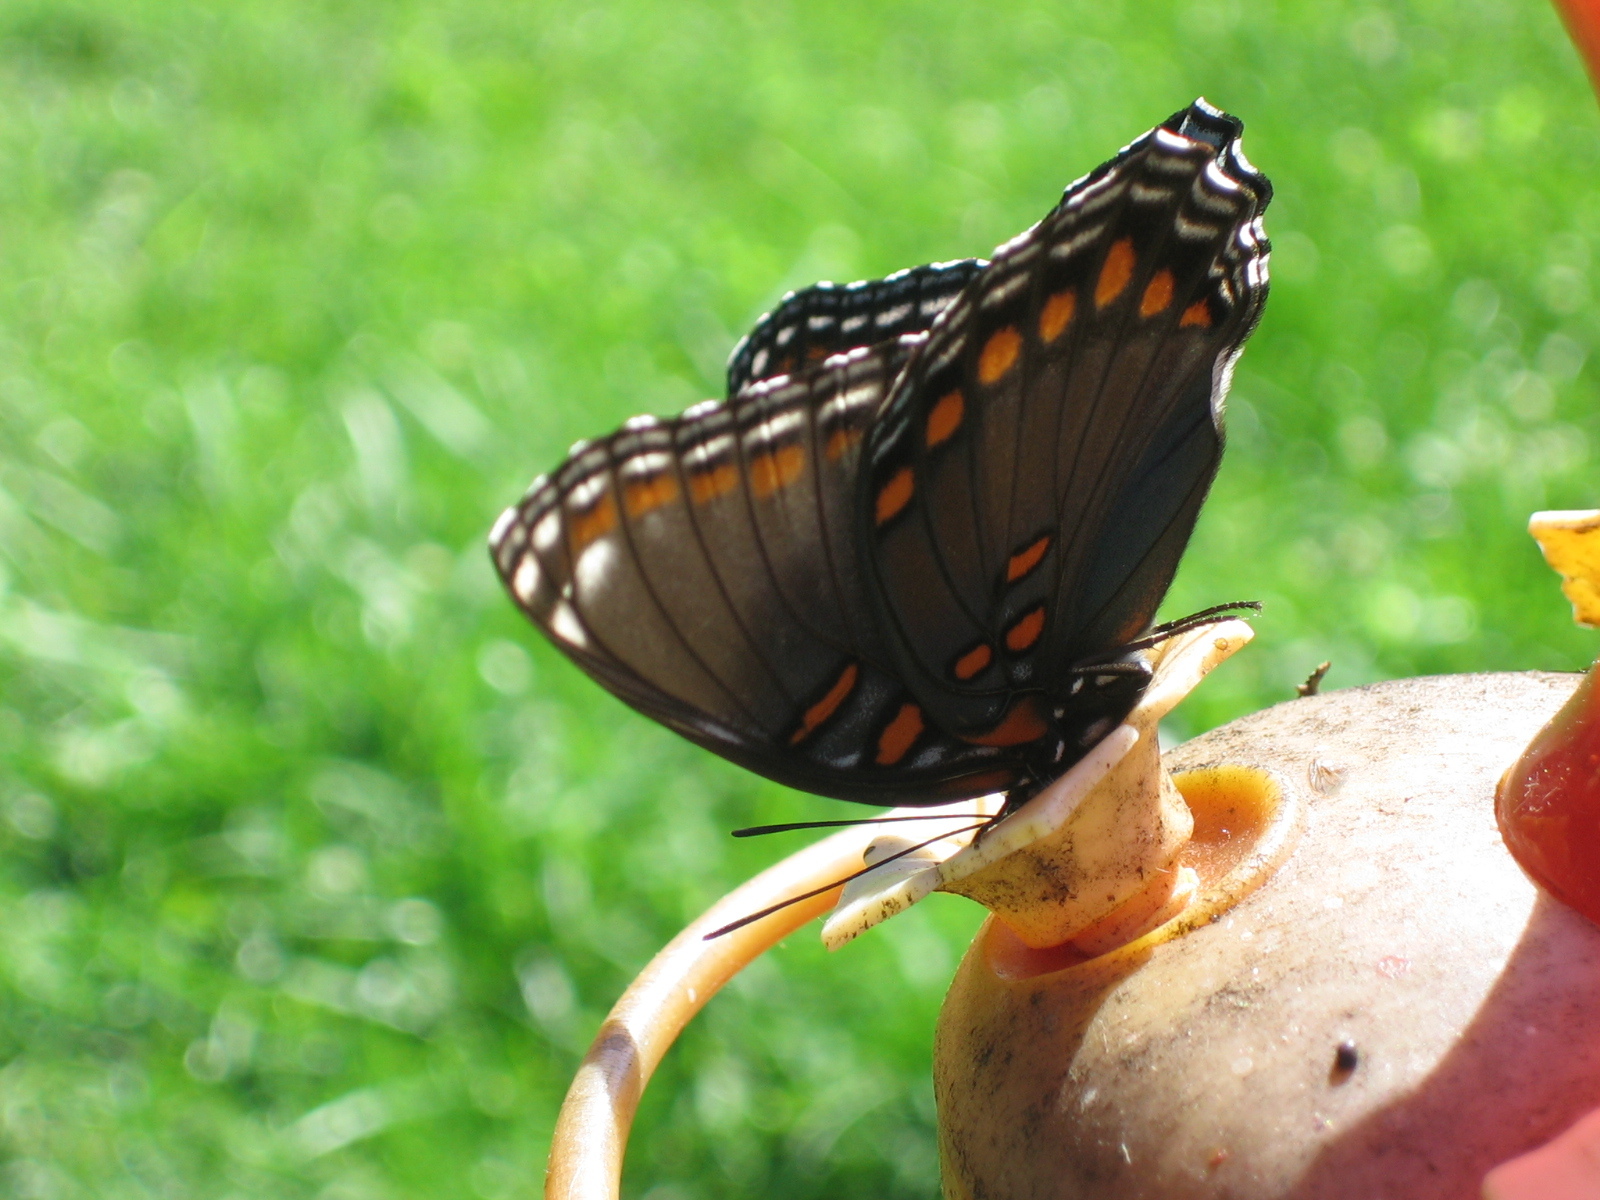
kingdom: Animalia
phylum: Arthropoda
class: Insecta
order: Lepidoptera
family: Nymphalidae
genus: Limenitis
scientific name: Limenitis astyanax
